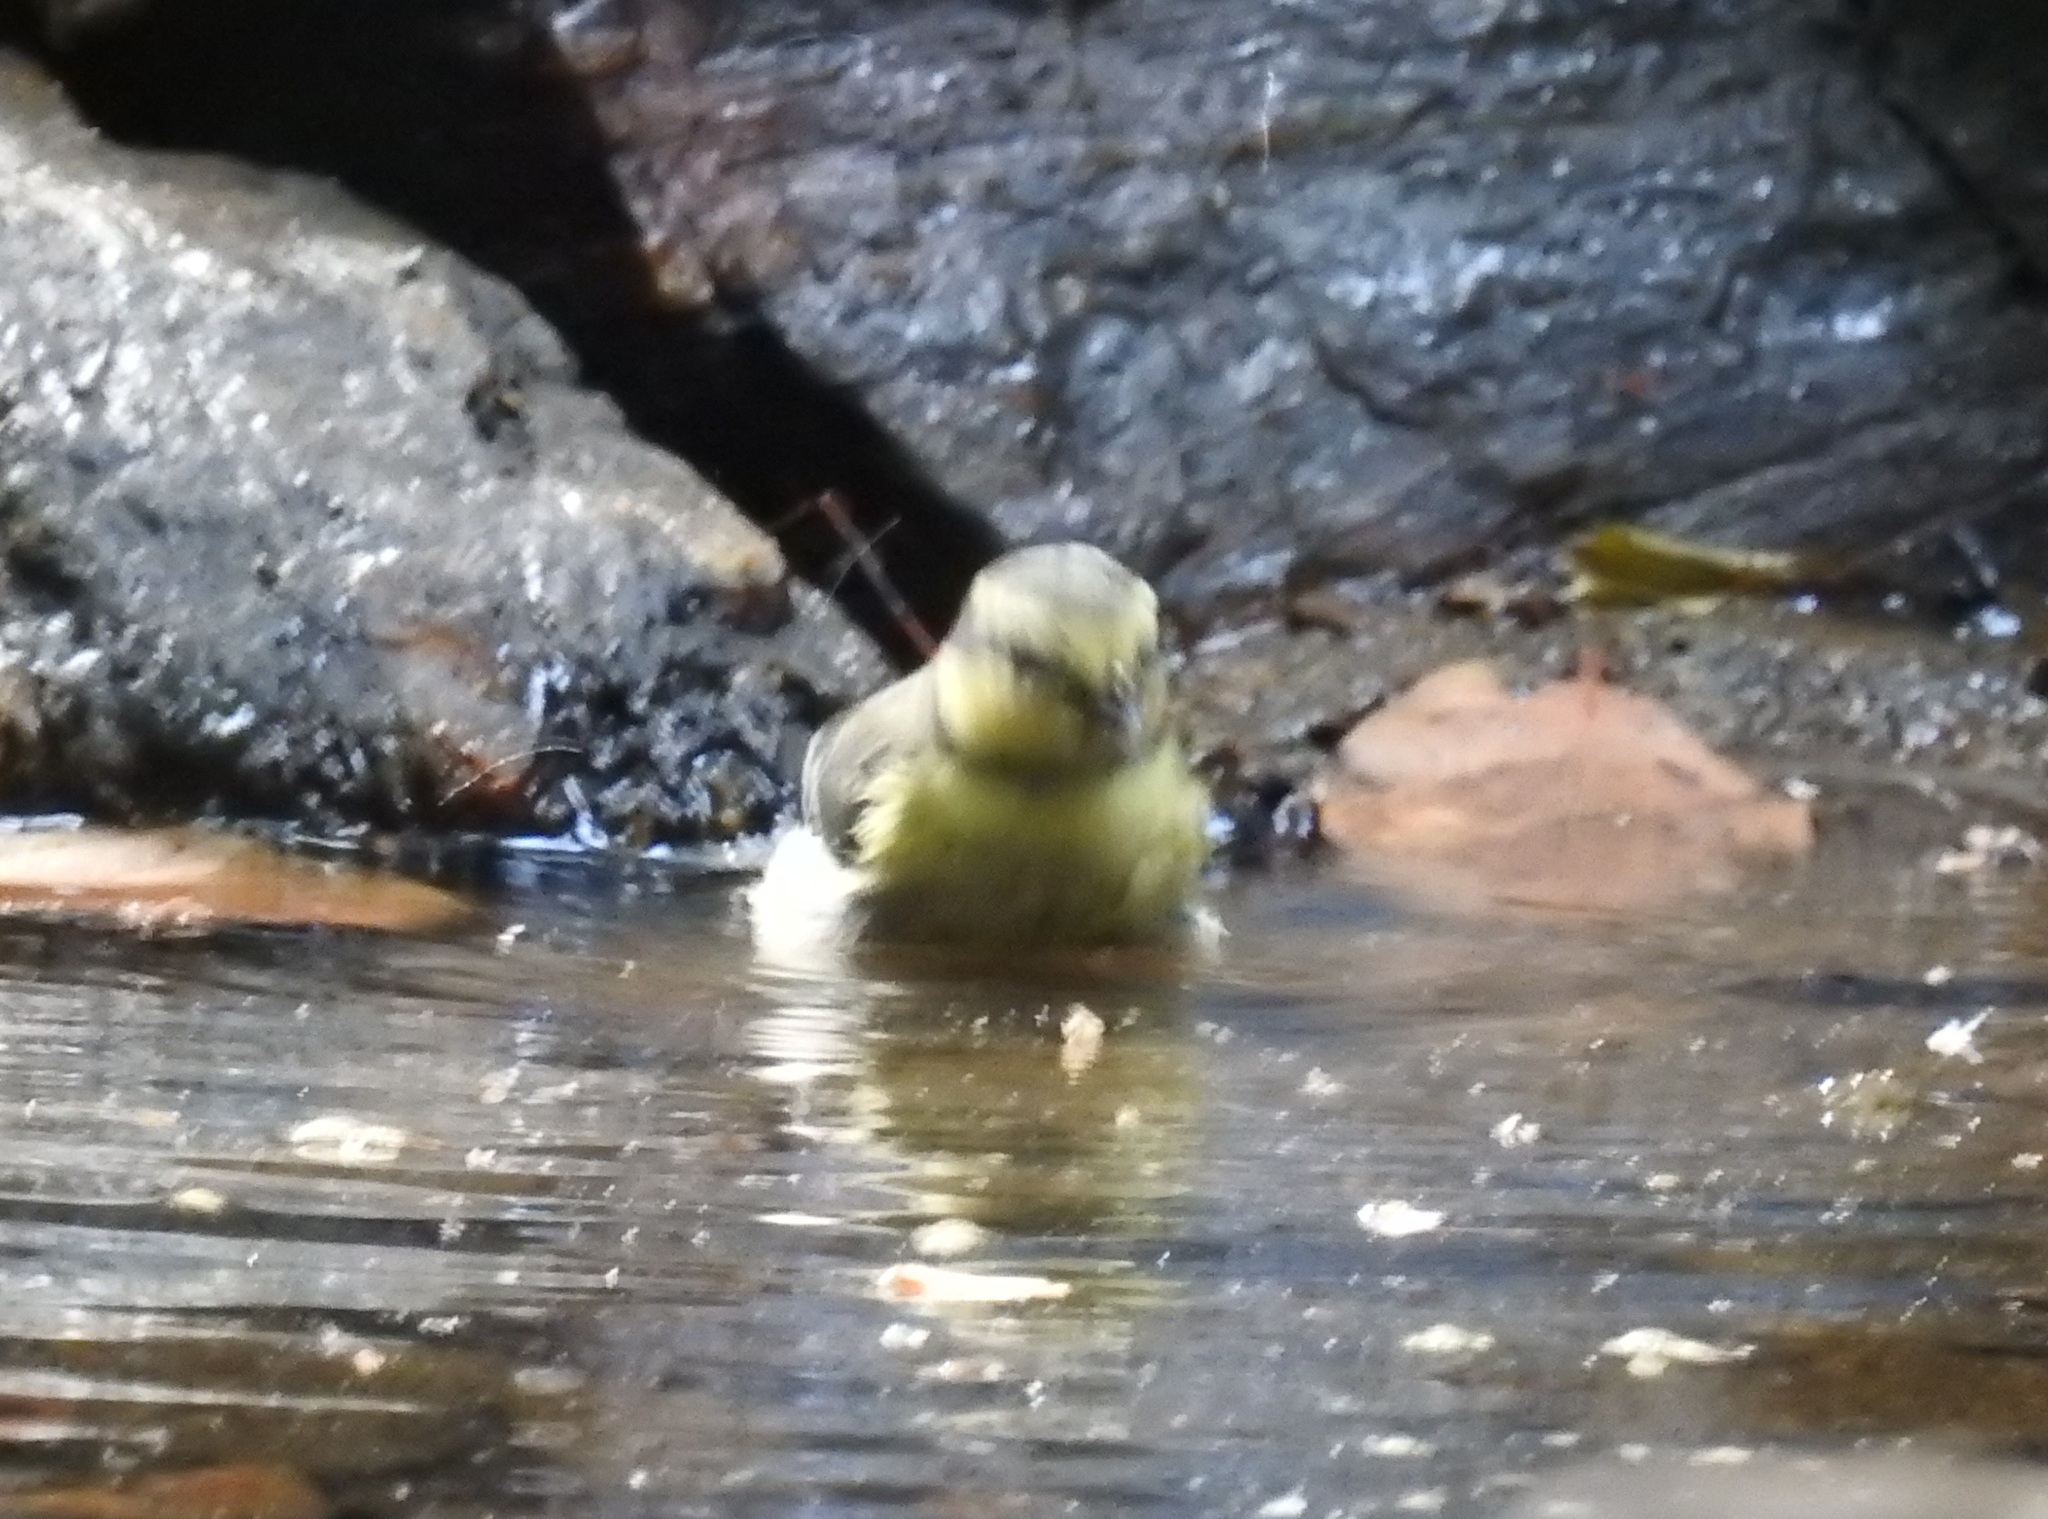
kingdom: Animalia
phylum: Chordata
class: Aves
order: Passeriformes
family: Paridae
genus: Cyanistes
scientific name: Cyanistes teneriffae
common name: African blue tit
